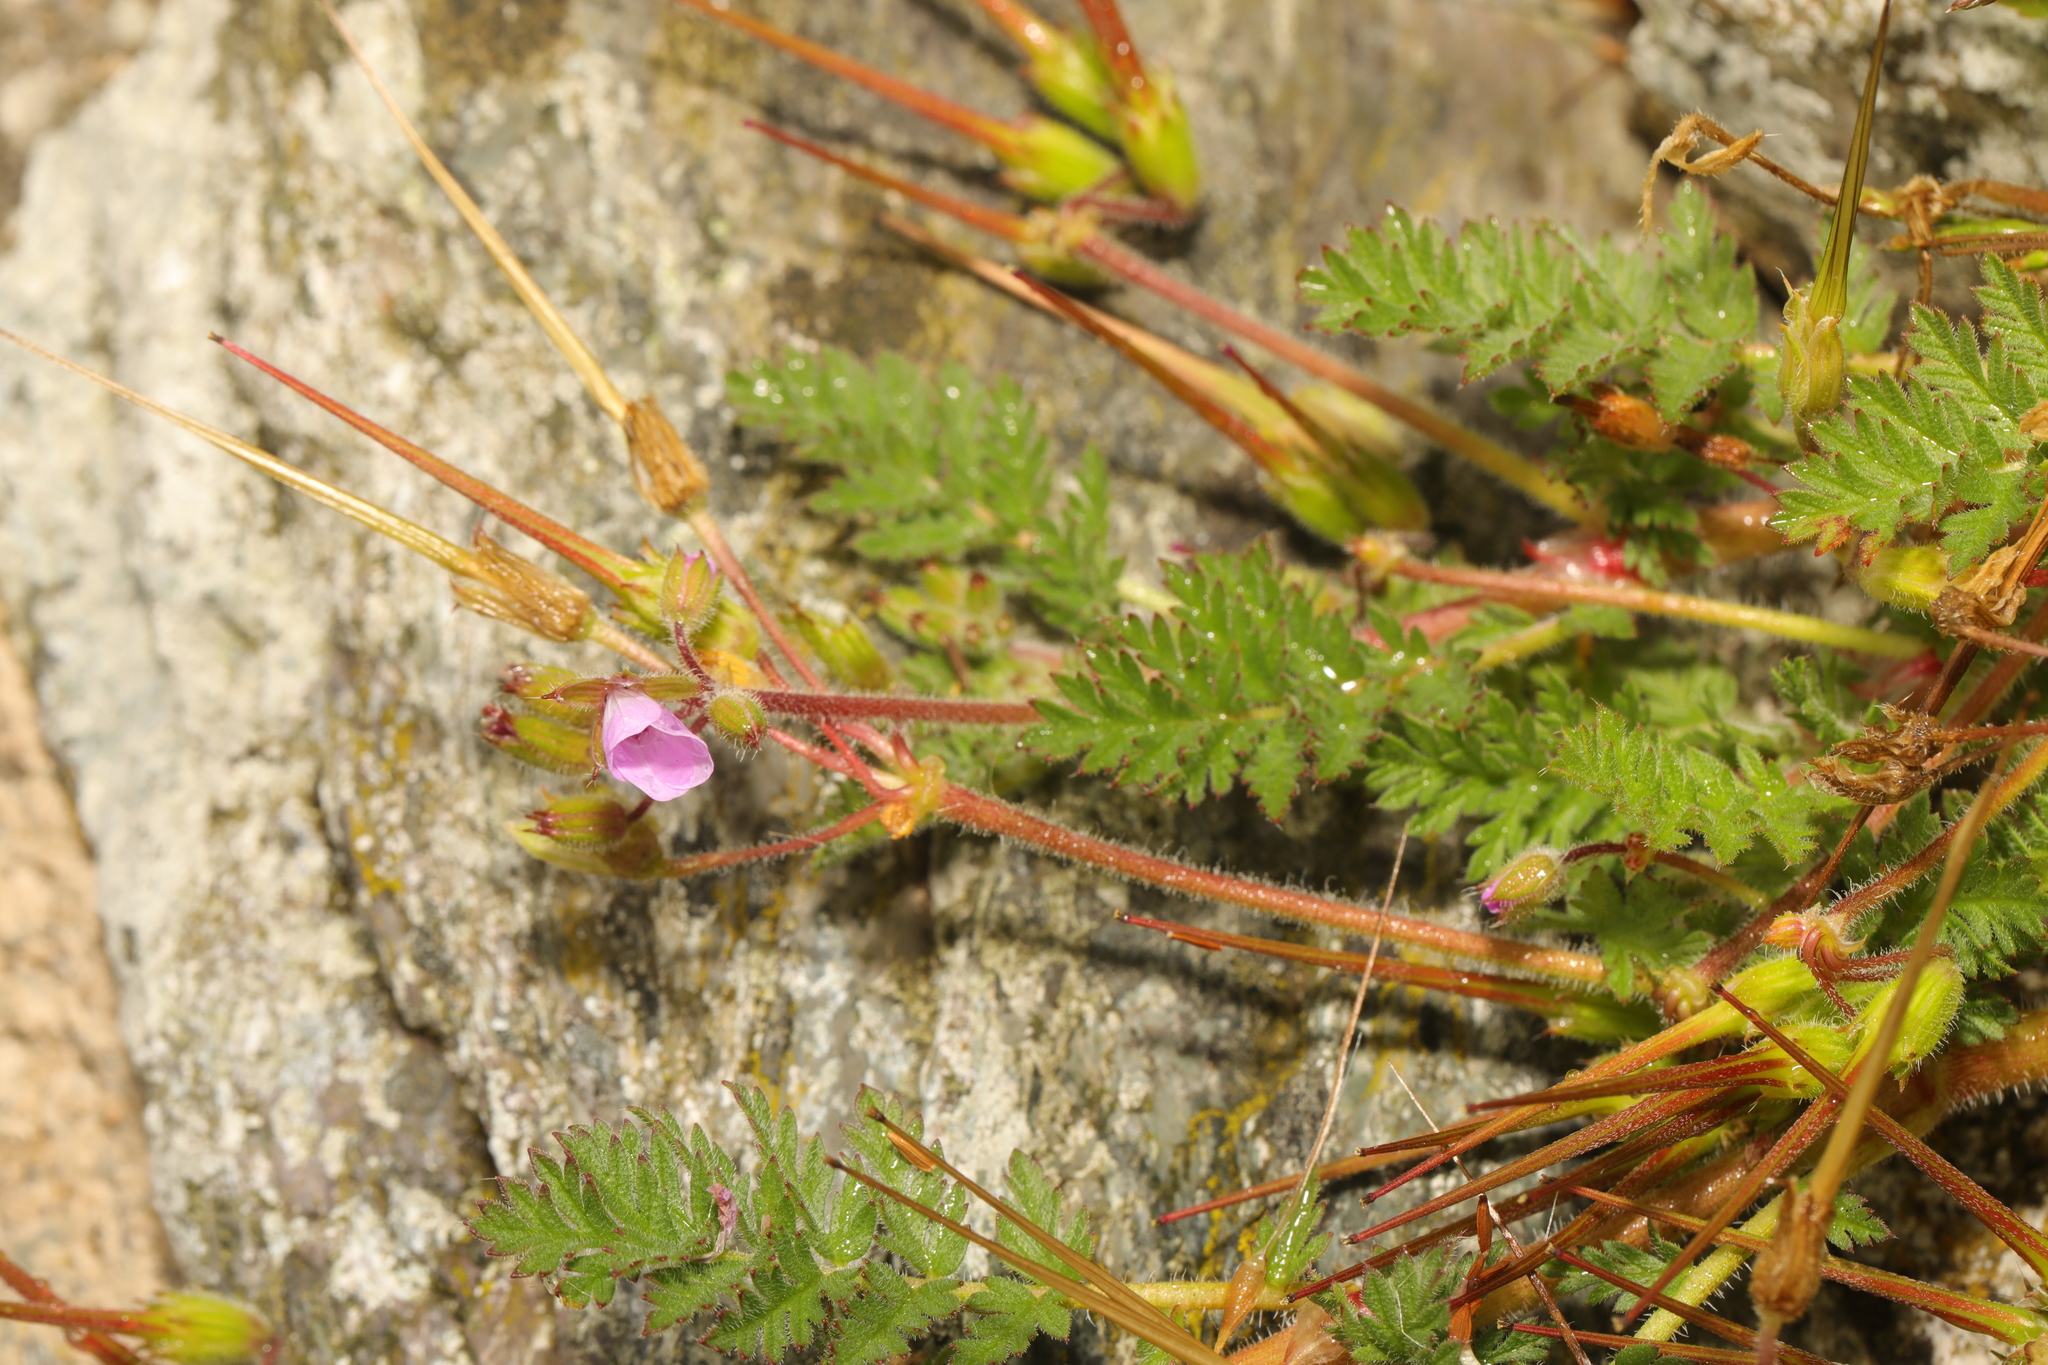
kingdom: Plantae
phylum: Tracheophyta
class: Magnoliopsida
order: Geraniales
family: Geraniaceae
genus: Erodium
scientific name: Erodium cicutarium
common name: Common stork's-bill
